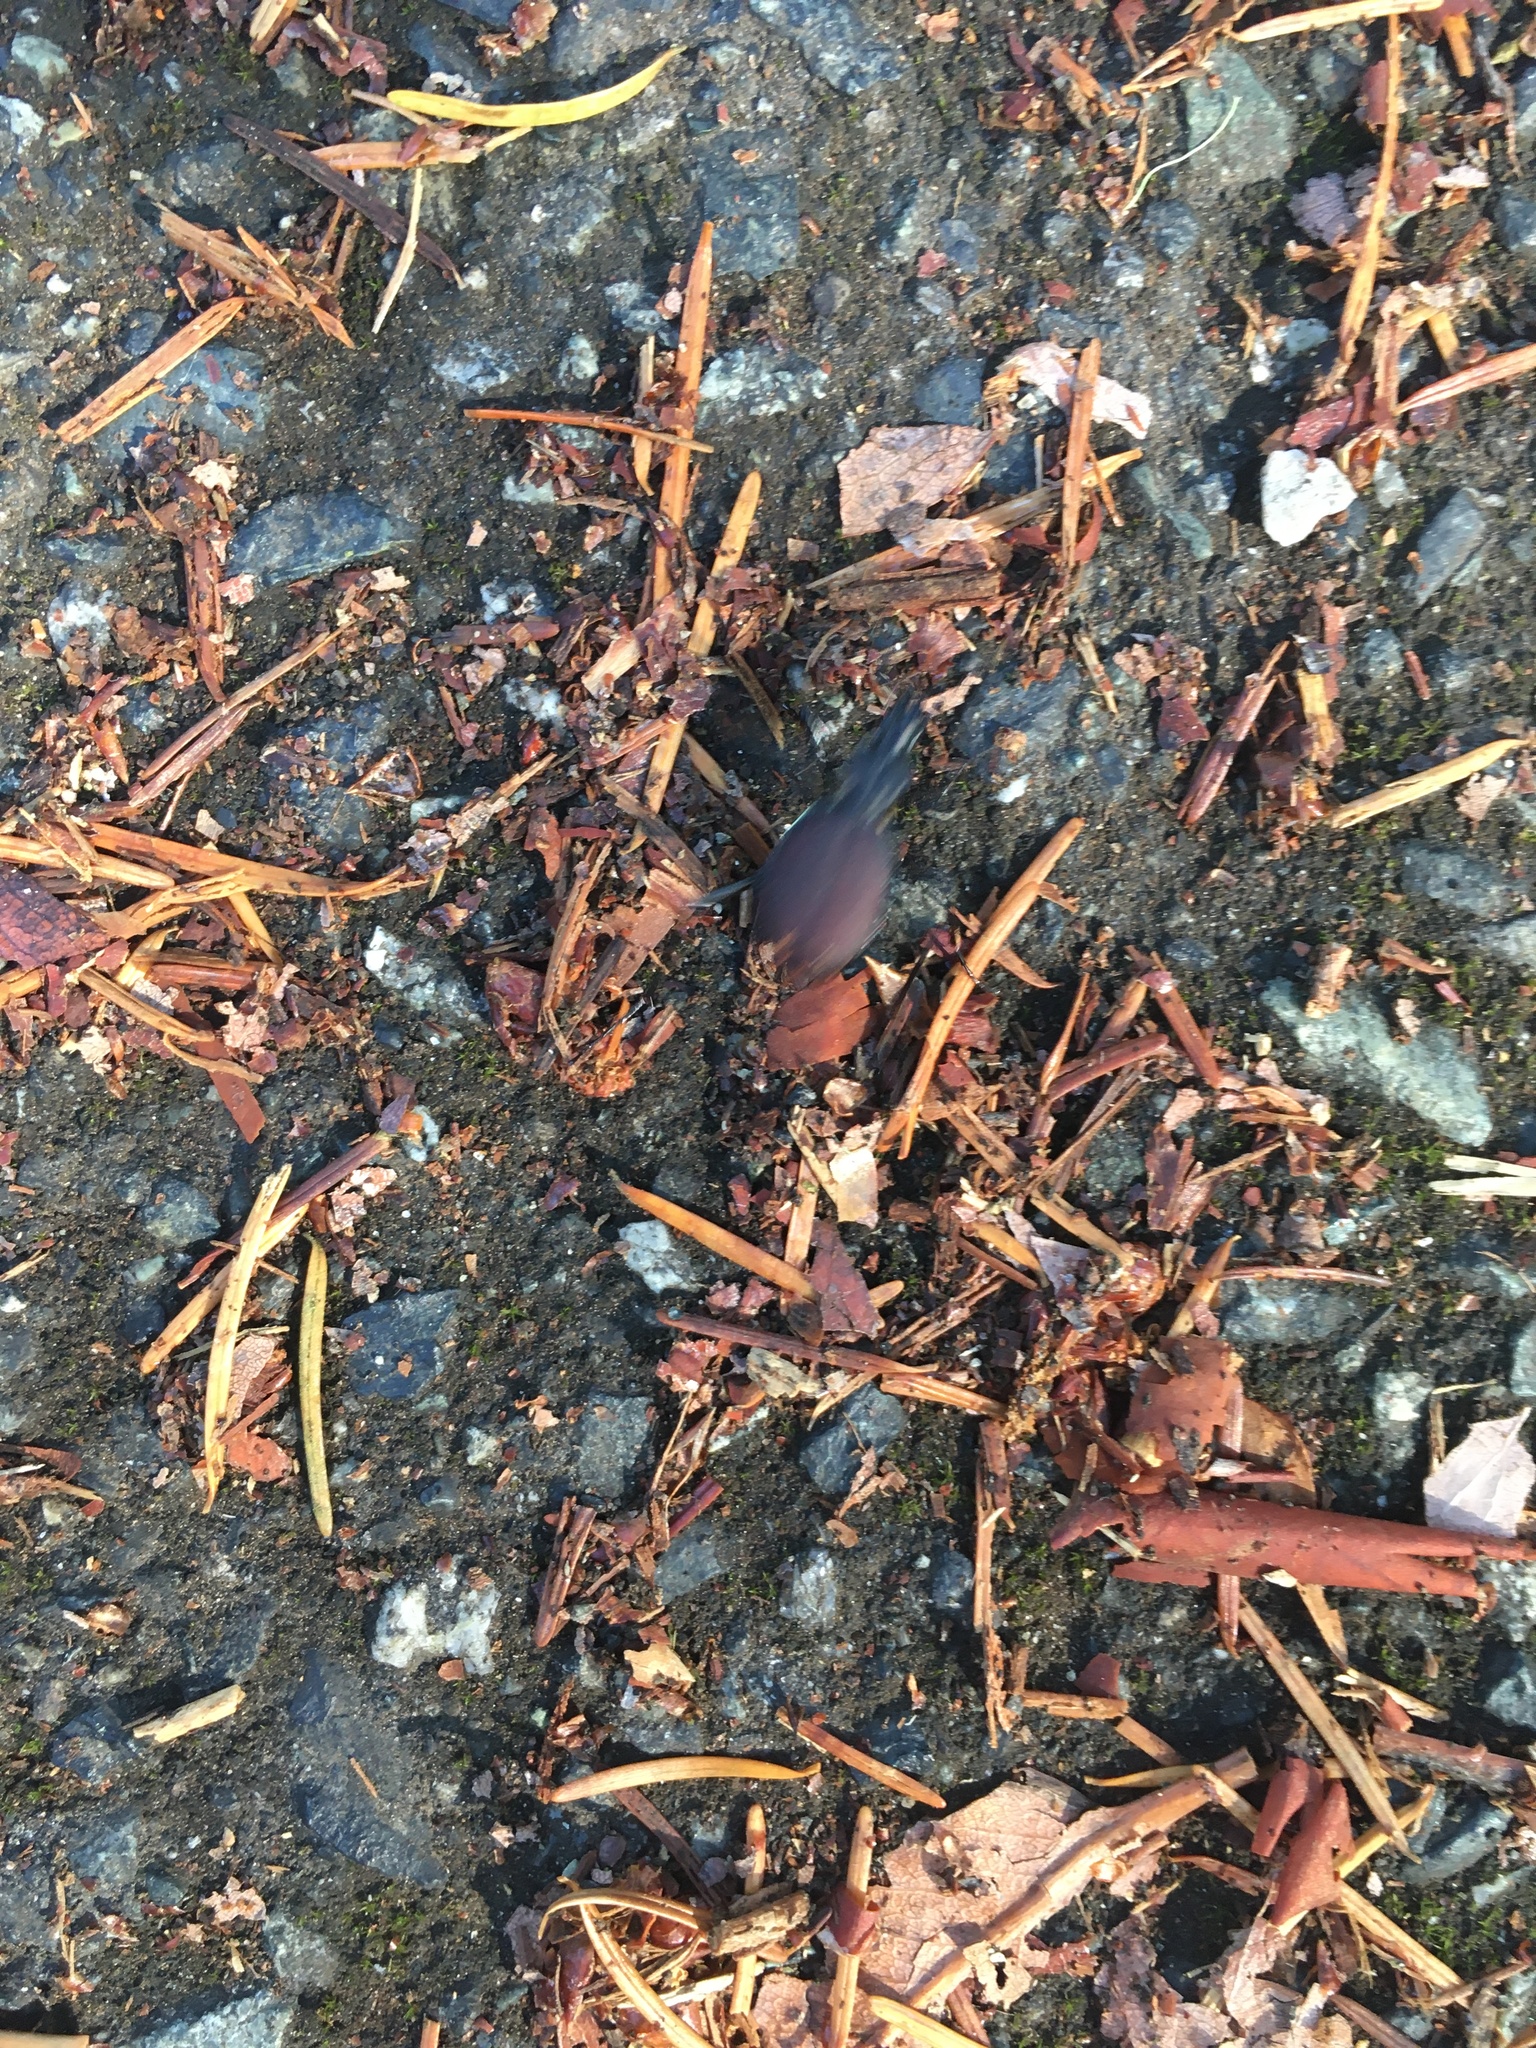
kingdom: Animalia
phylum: Arthropoda
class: Insecta
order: Coleoptera
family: Carabidae
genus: Scaphinotus
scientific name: Scaphinotus angusticollis
